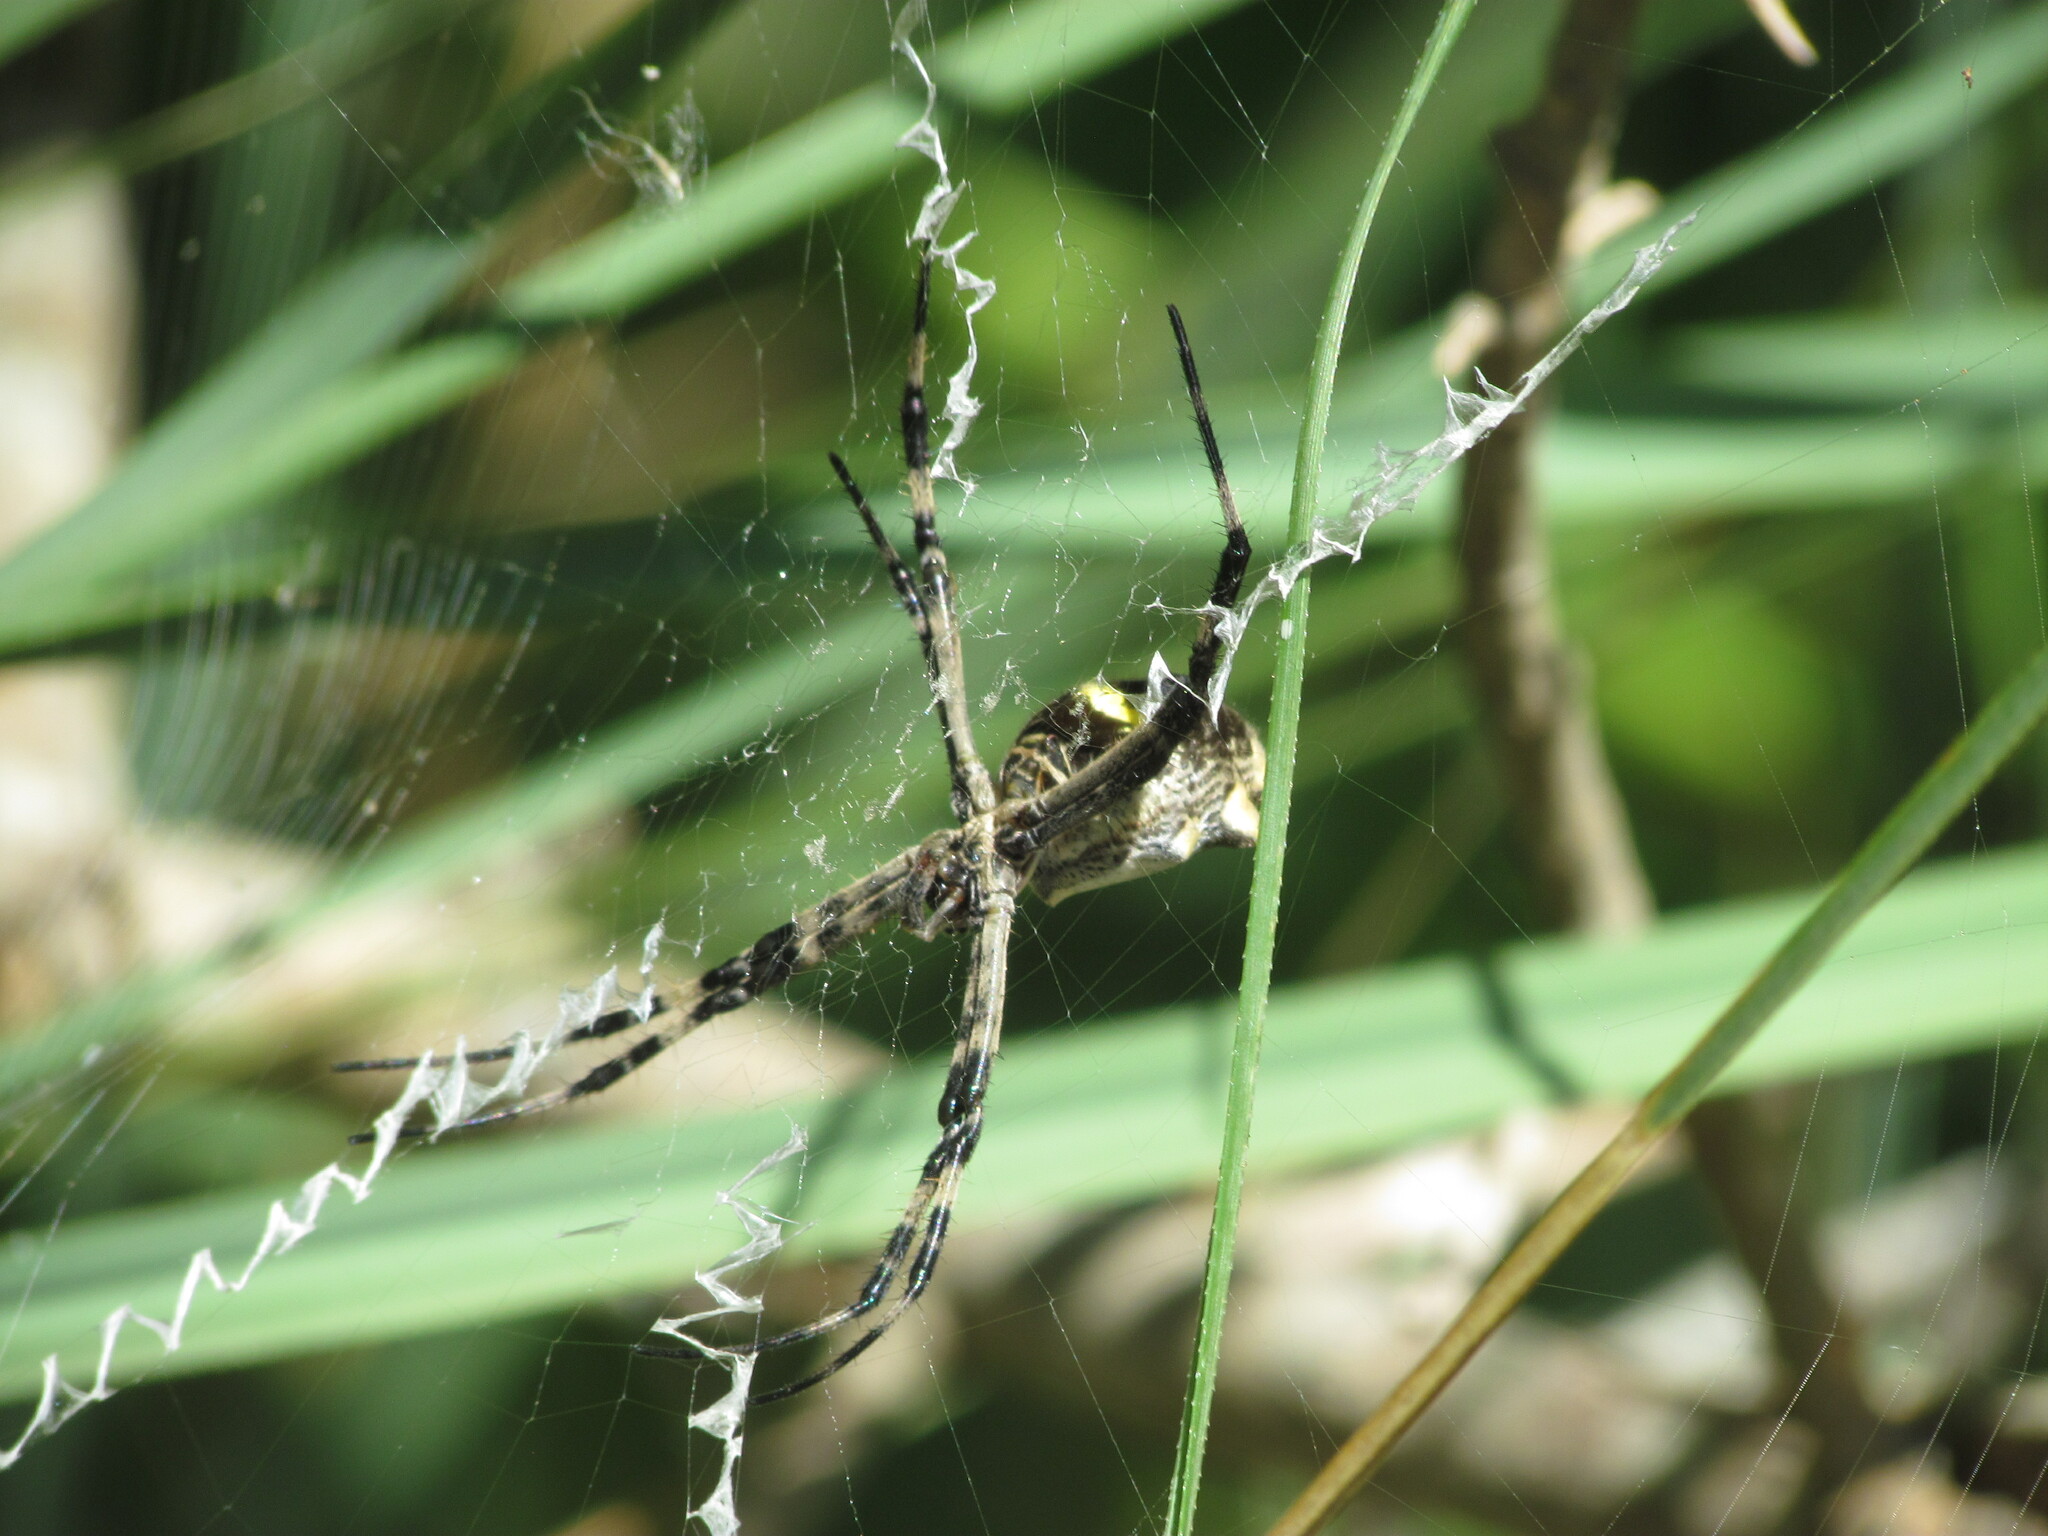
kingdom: Animalia
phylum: Arthropoda
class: Arachnida
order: Araneae
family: Araneidae
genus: Argiope
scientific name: Argiope argentata
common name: Orb weavers
